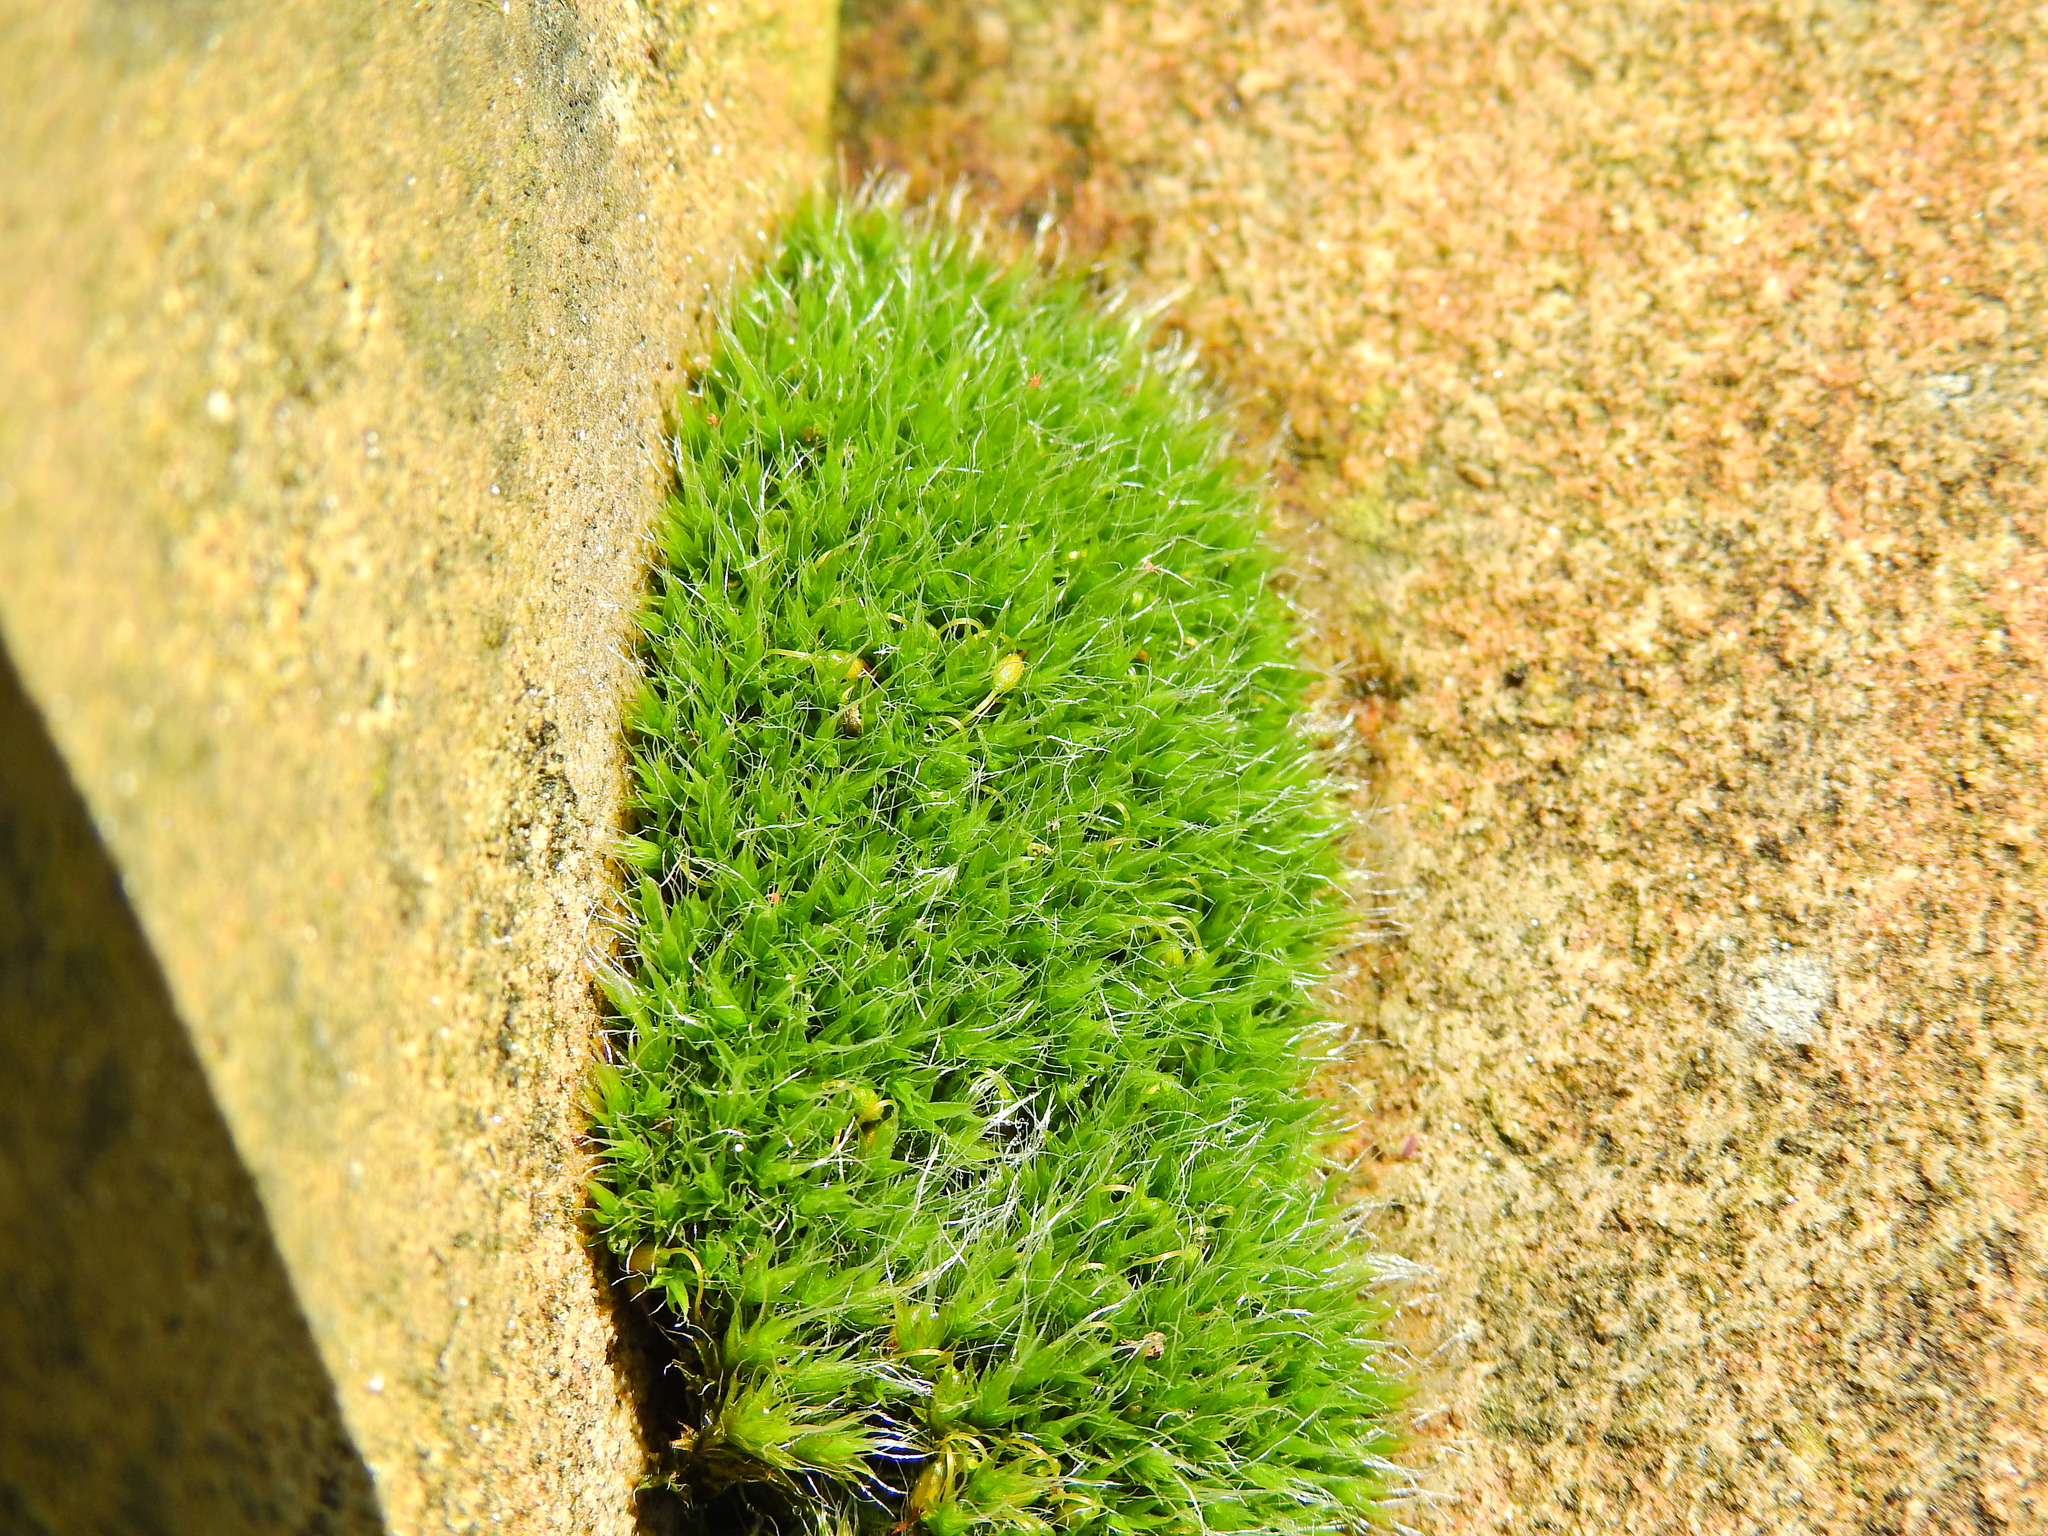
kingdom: Plantae
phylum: Bryophyta
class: Bryopsida
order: Grimmiales
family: Grimmiaceae
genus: Grimmia
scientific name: Grimmia pulvinata
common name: Grey-cushioned grimmia
